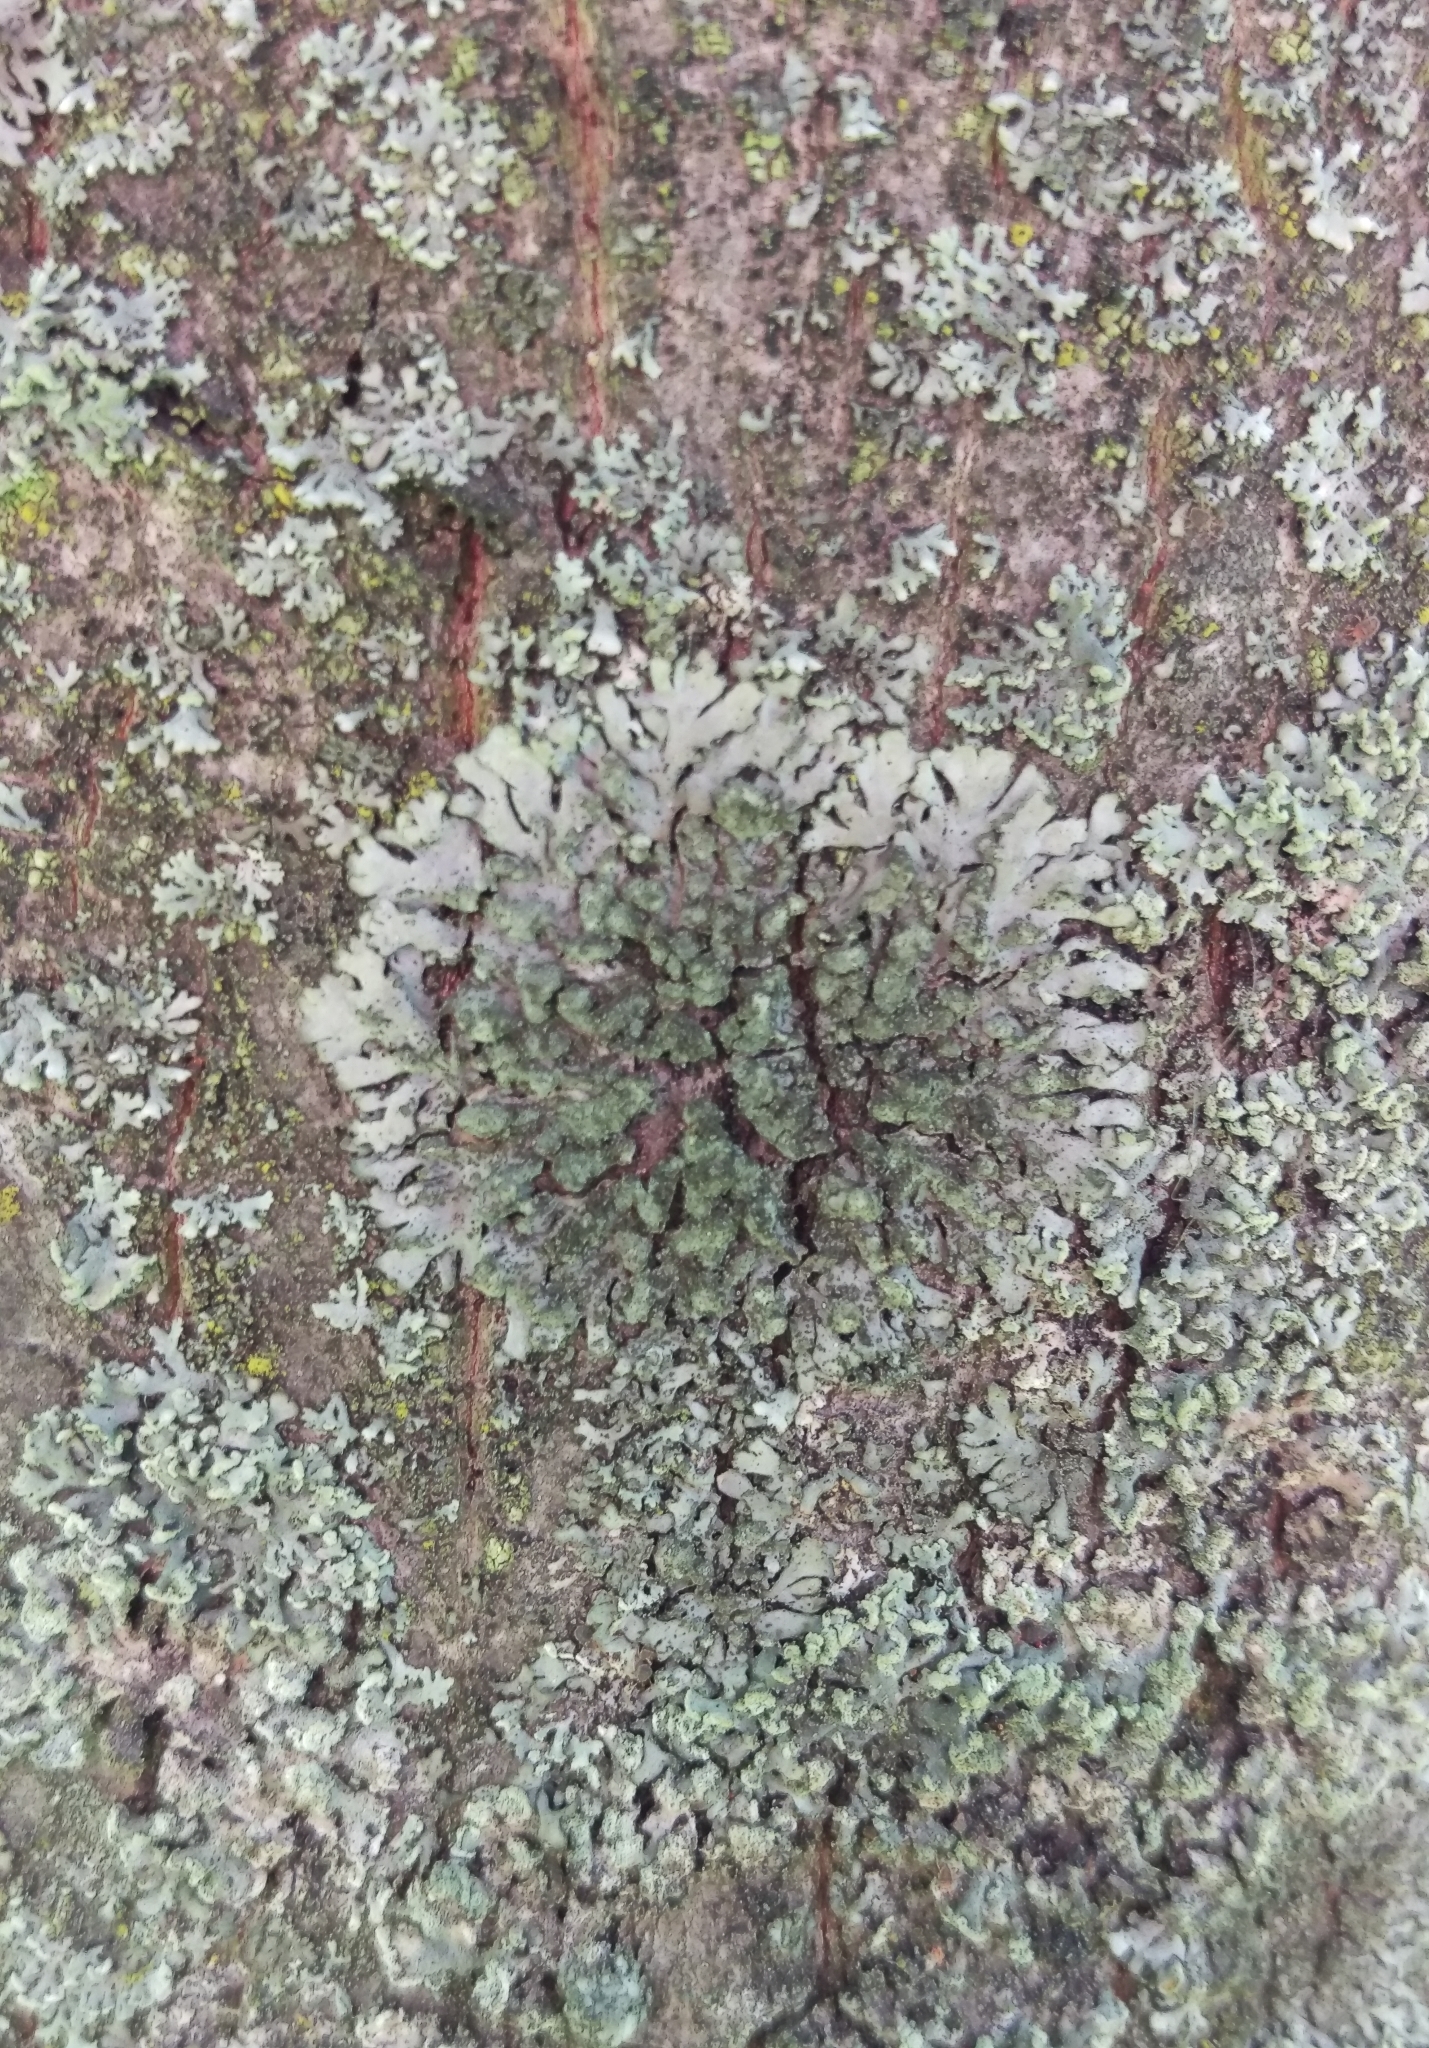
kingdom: Fungi
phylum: Ascomycota
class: Lecanoromycetes
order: Caliciales
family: Physciaceae
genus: Phaeophyscia
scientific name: Phaeophyscia orbicularis
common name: Mealy shadow lichen
